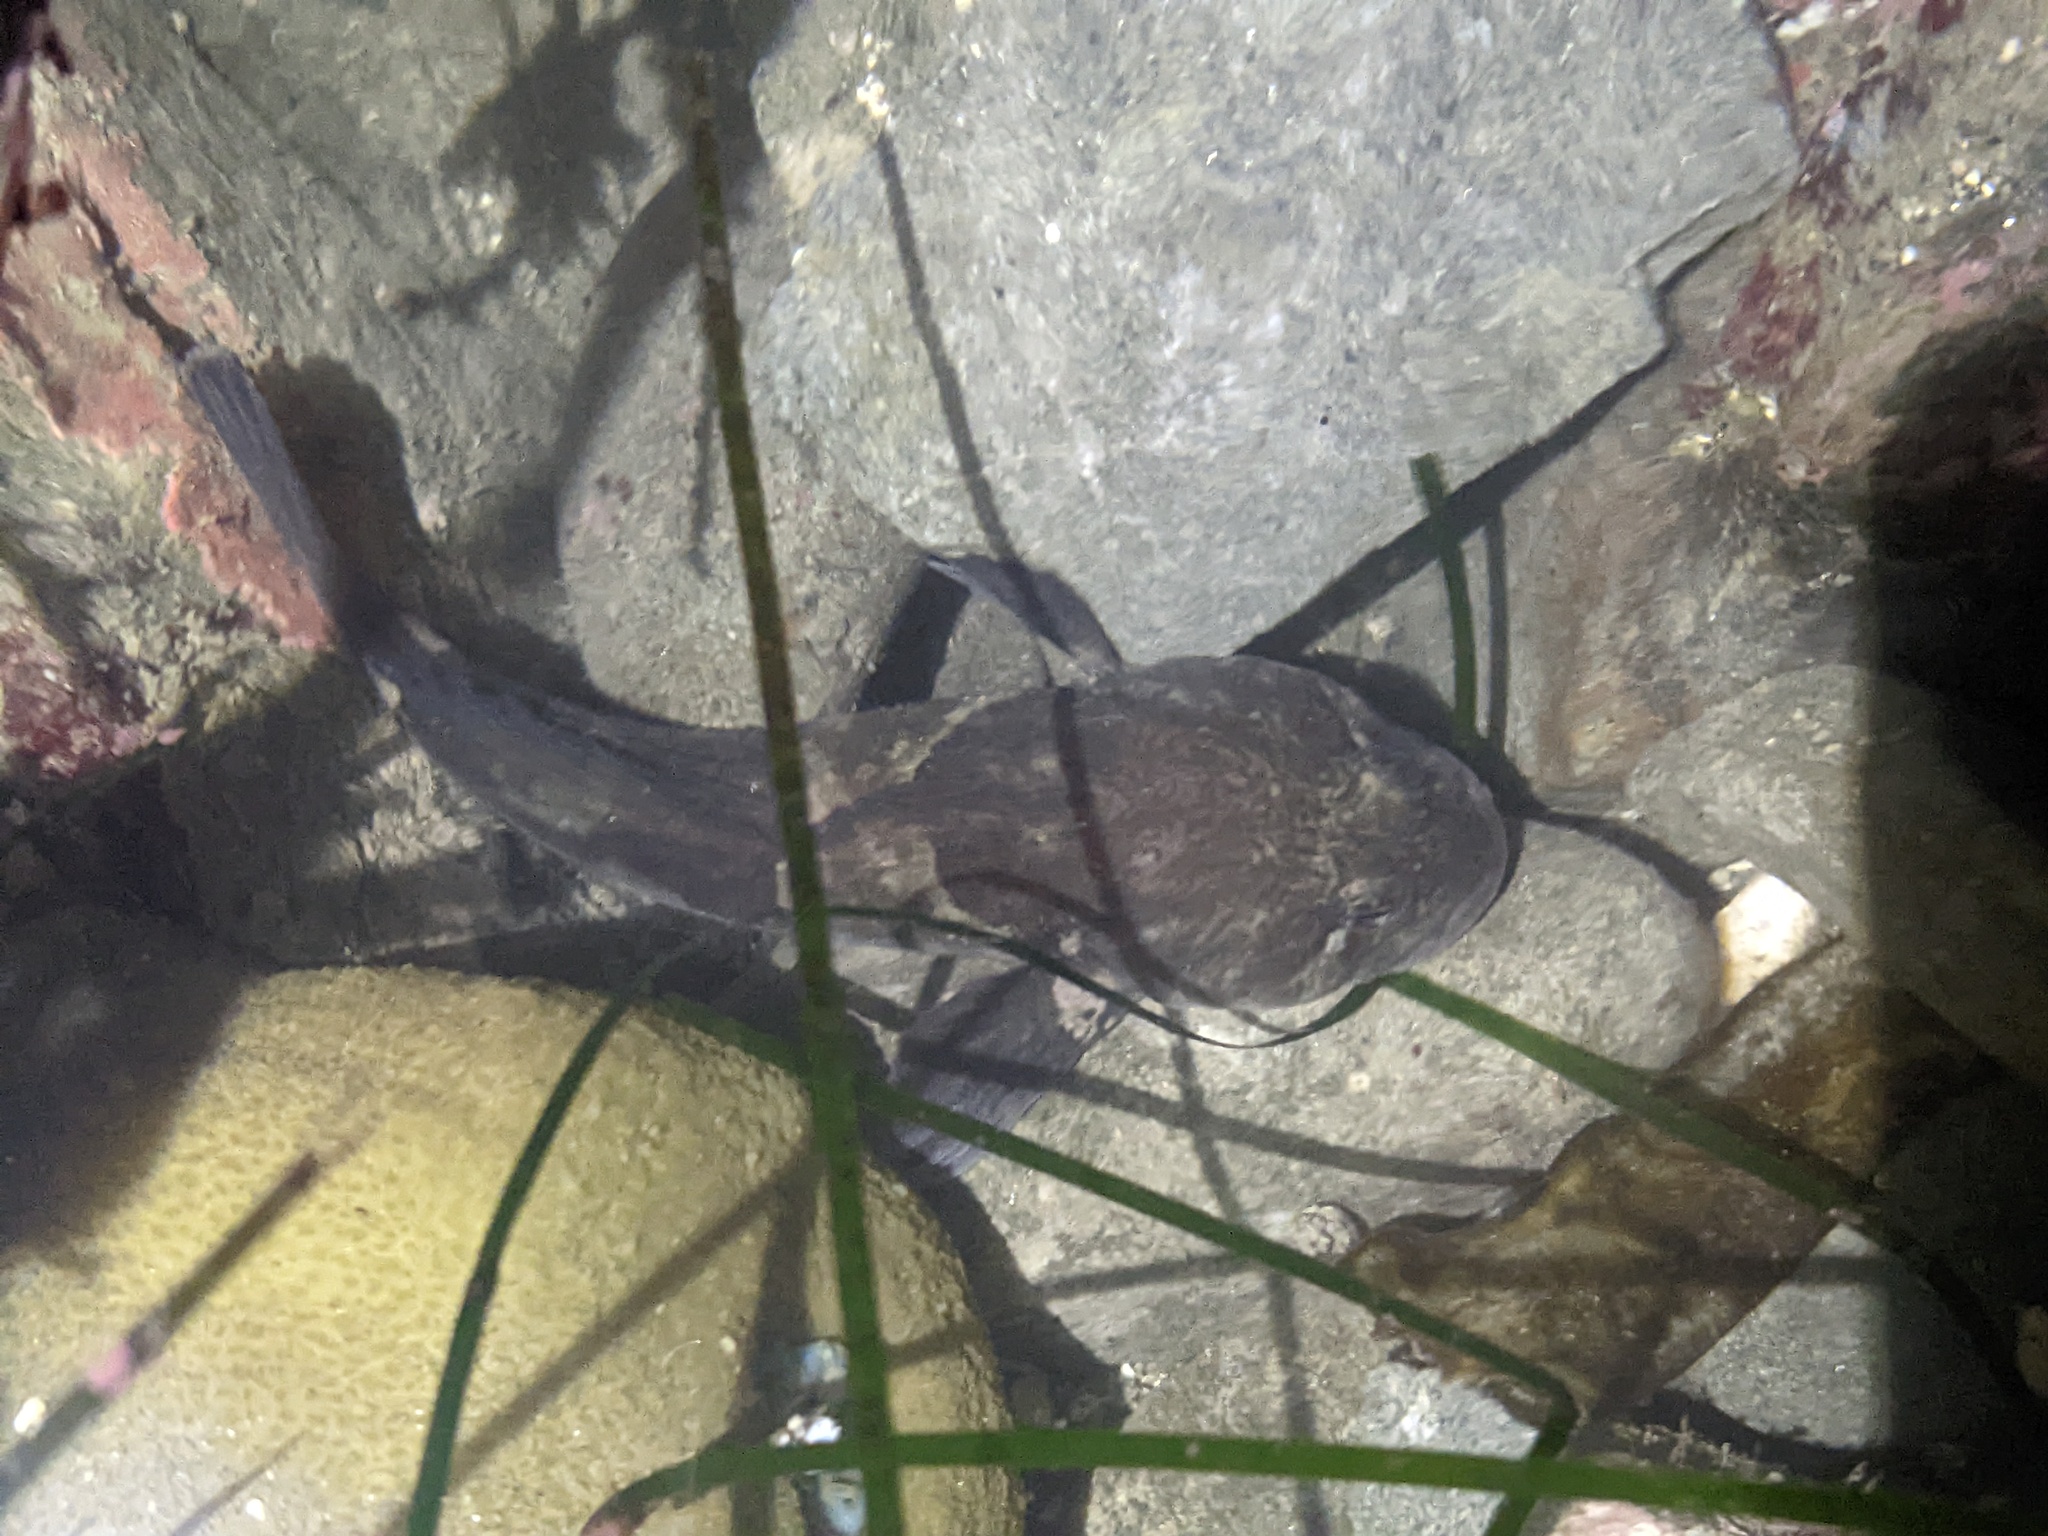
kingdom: Animalia
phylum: Chordata
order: Scorpaeniformes
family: Cottidae
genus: Ascelichthys
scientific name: Ascelichthys rhodorus
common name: Rosylip sculpin
